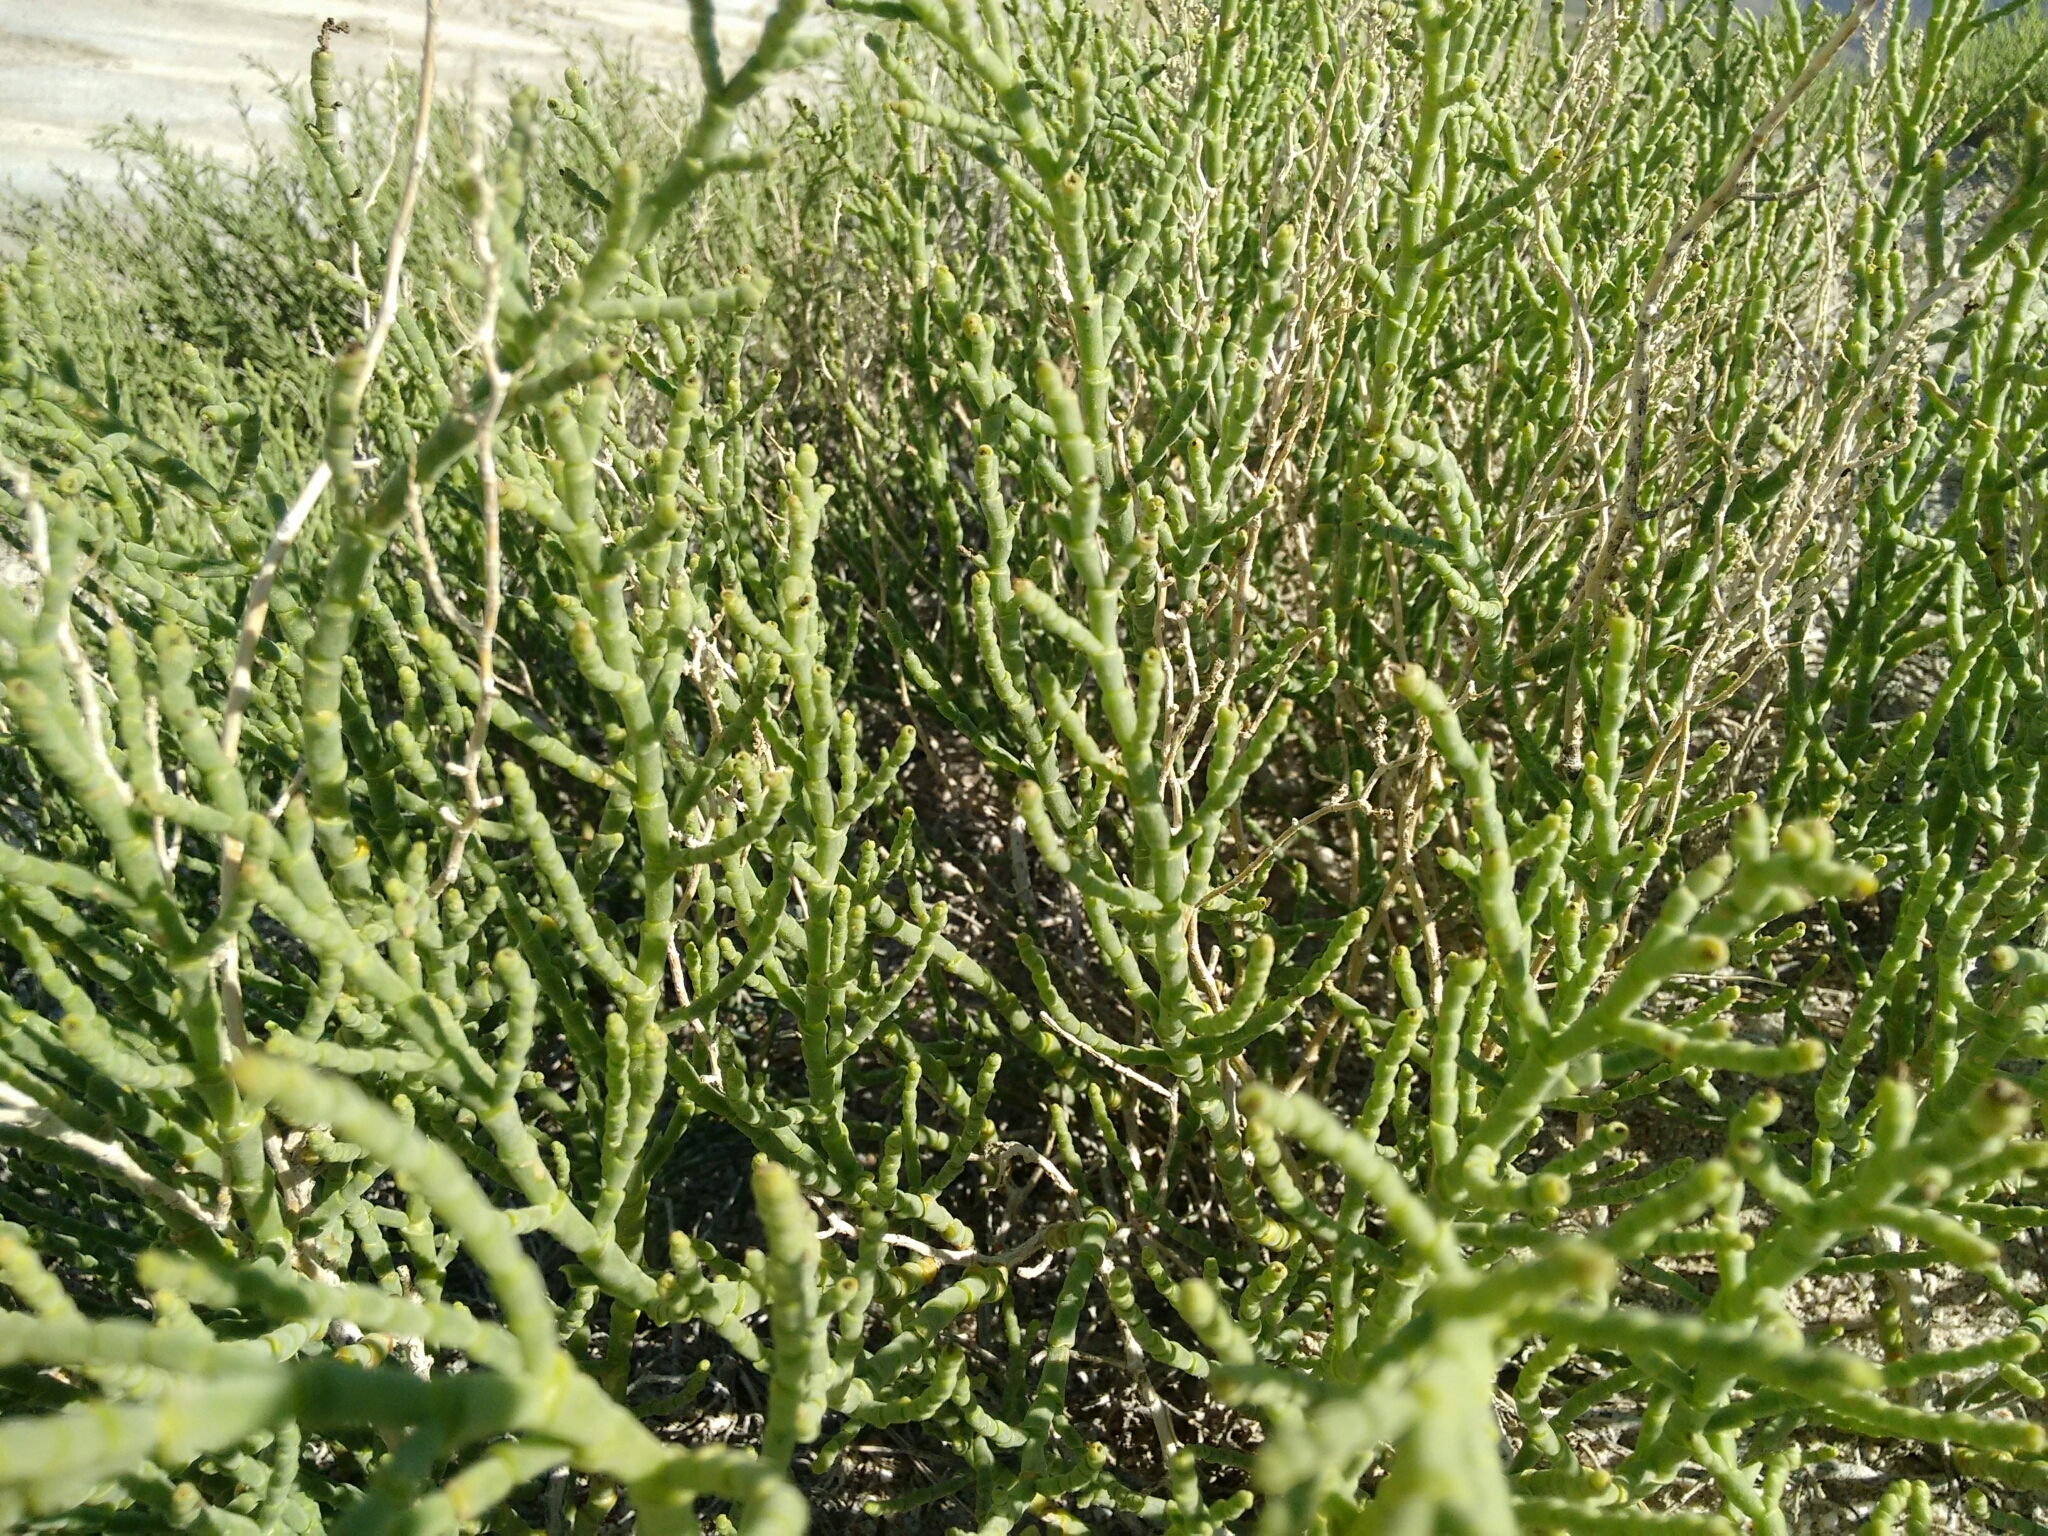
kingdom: Plantae
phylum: Tracheophyta
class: Magnoliopsida
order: Caryophyllales
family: Amaranthaceae
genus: Allenrolfea
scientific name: Allenrolfea occidentalis
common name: Iodine-bush
